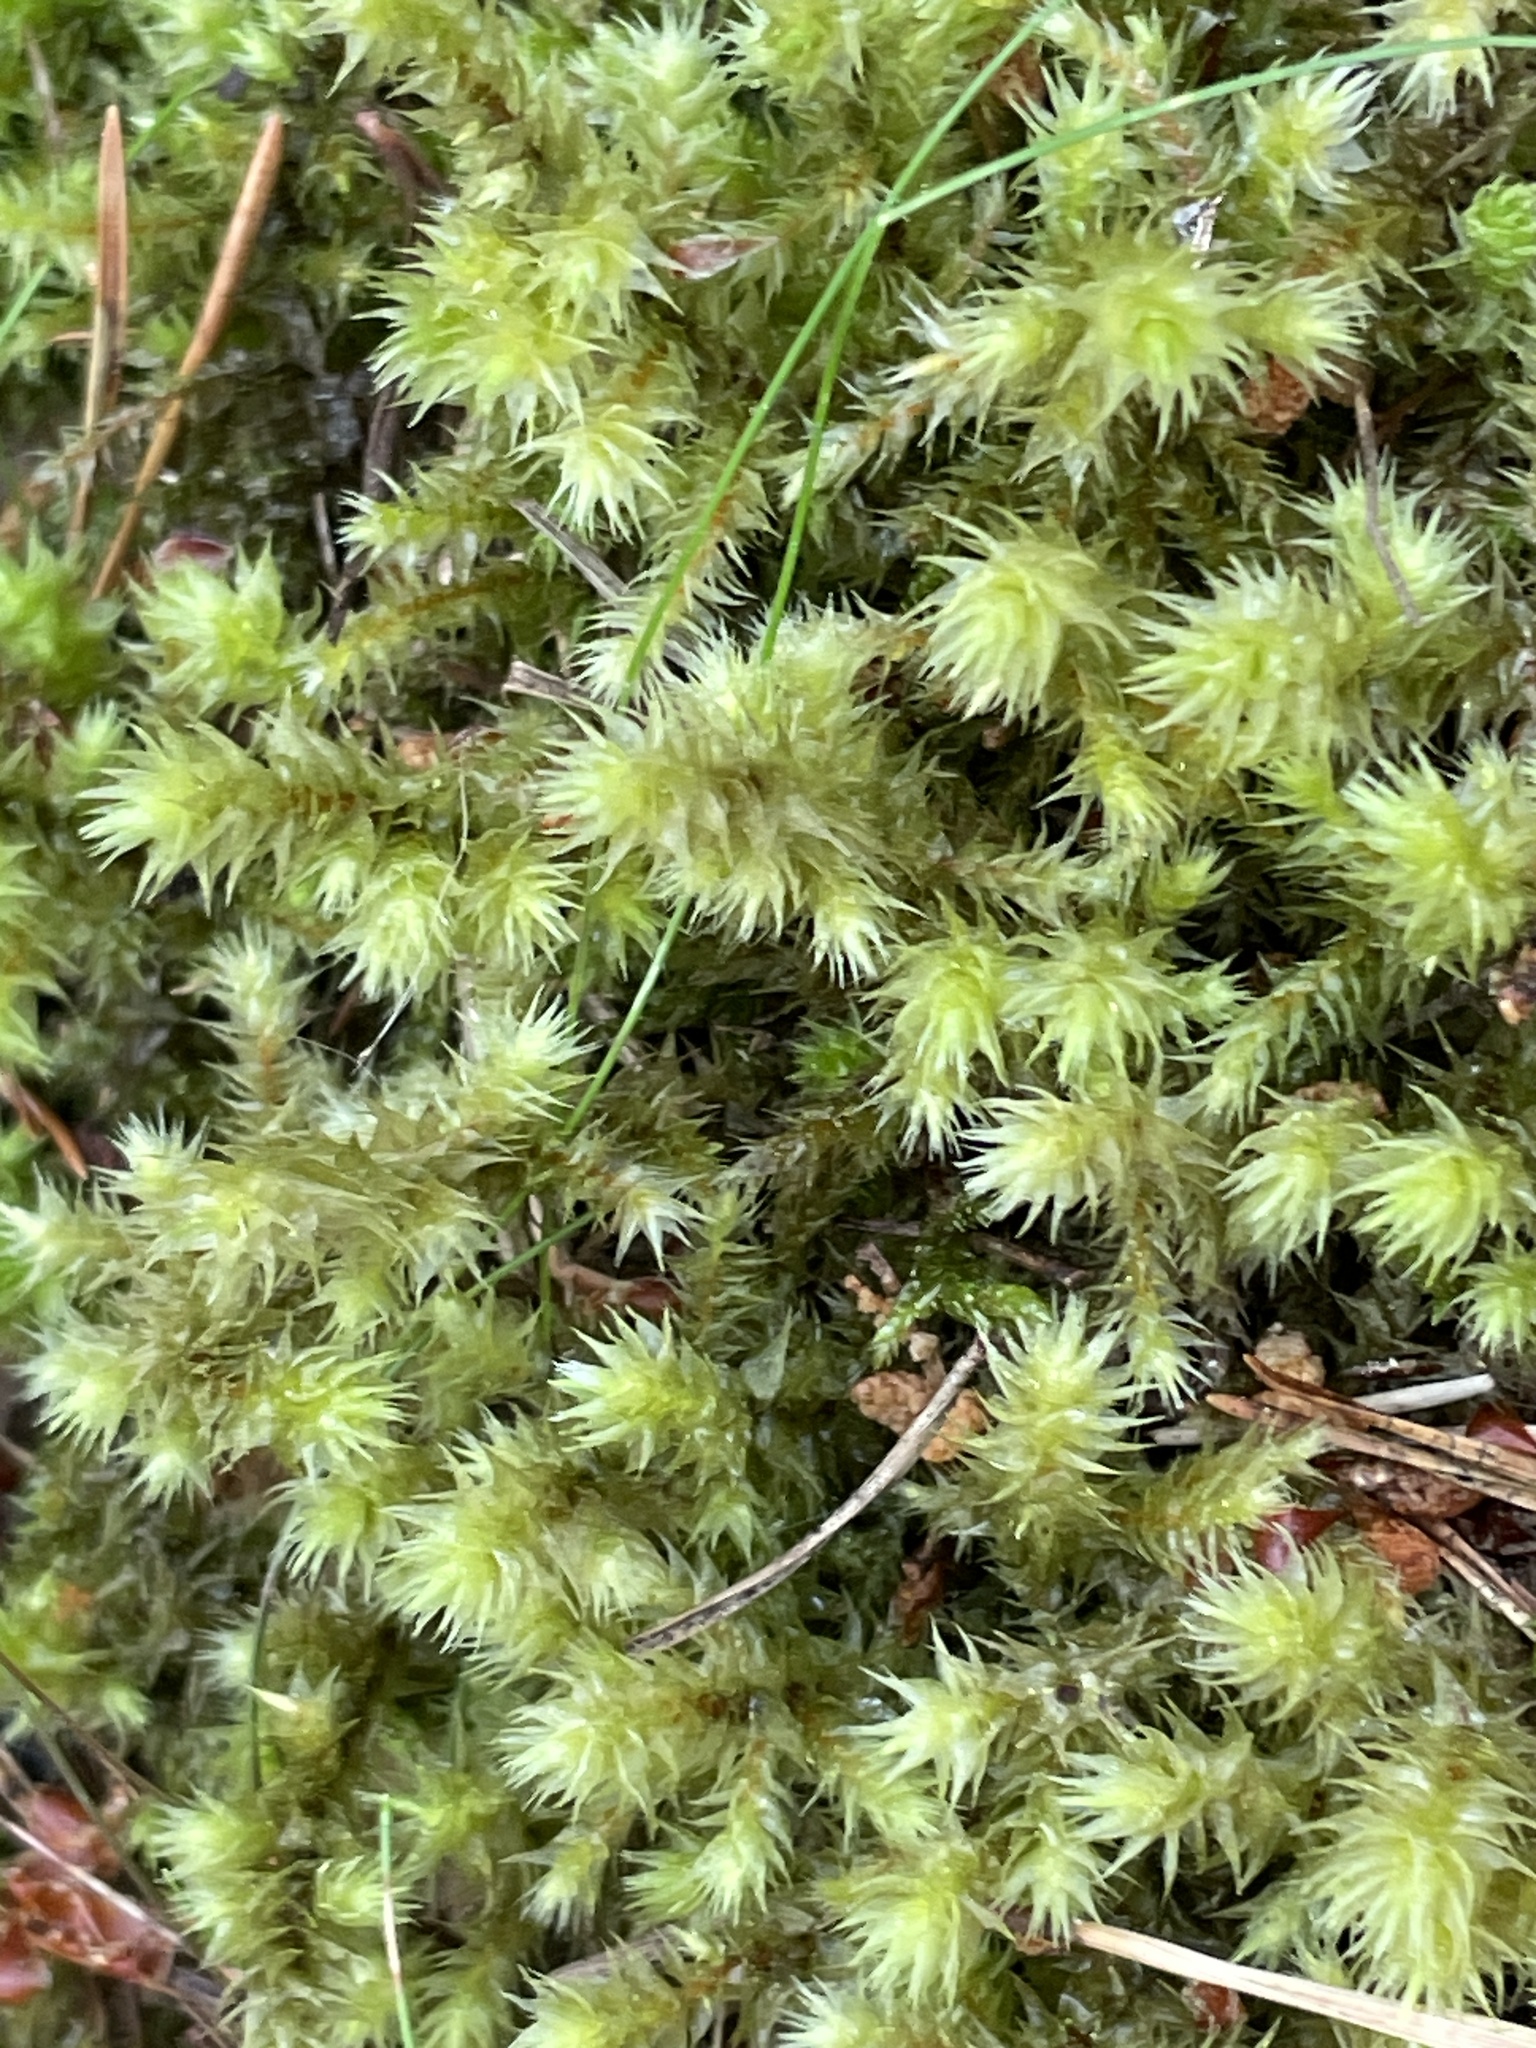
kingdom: Plantae
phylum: Bryophyta
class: Bryopsida
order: Hypnales
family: Hylocomiaceae
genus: Hylocomiadelphus
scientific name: Hylocomiadelphus triquetrus
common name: Rough goose neck moss
